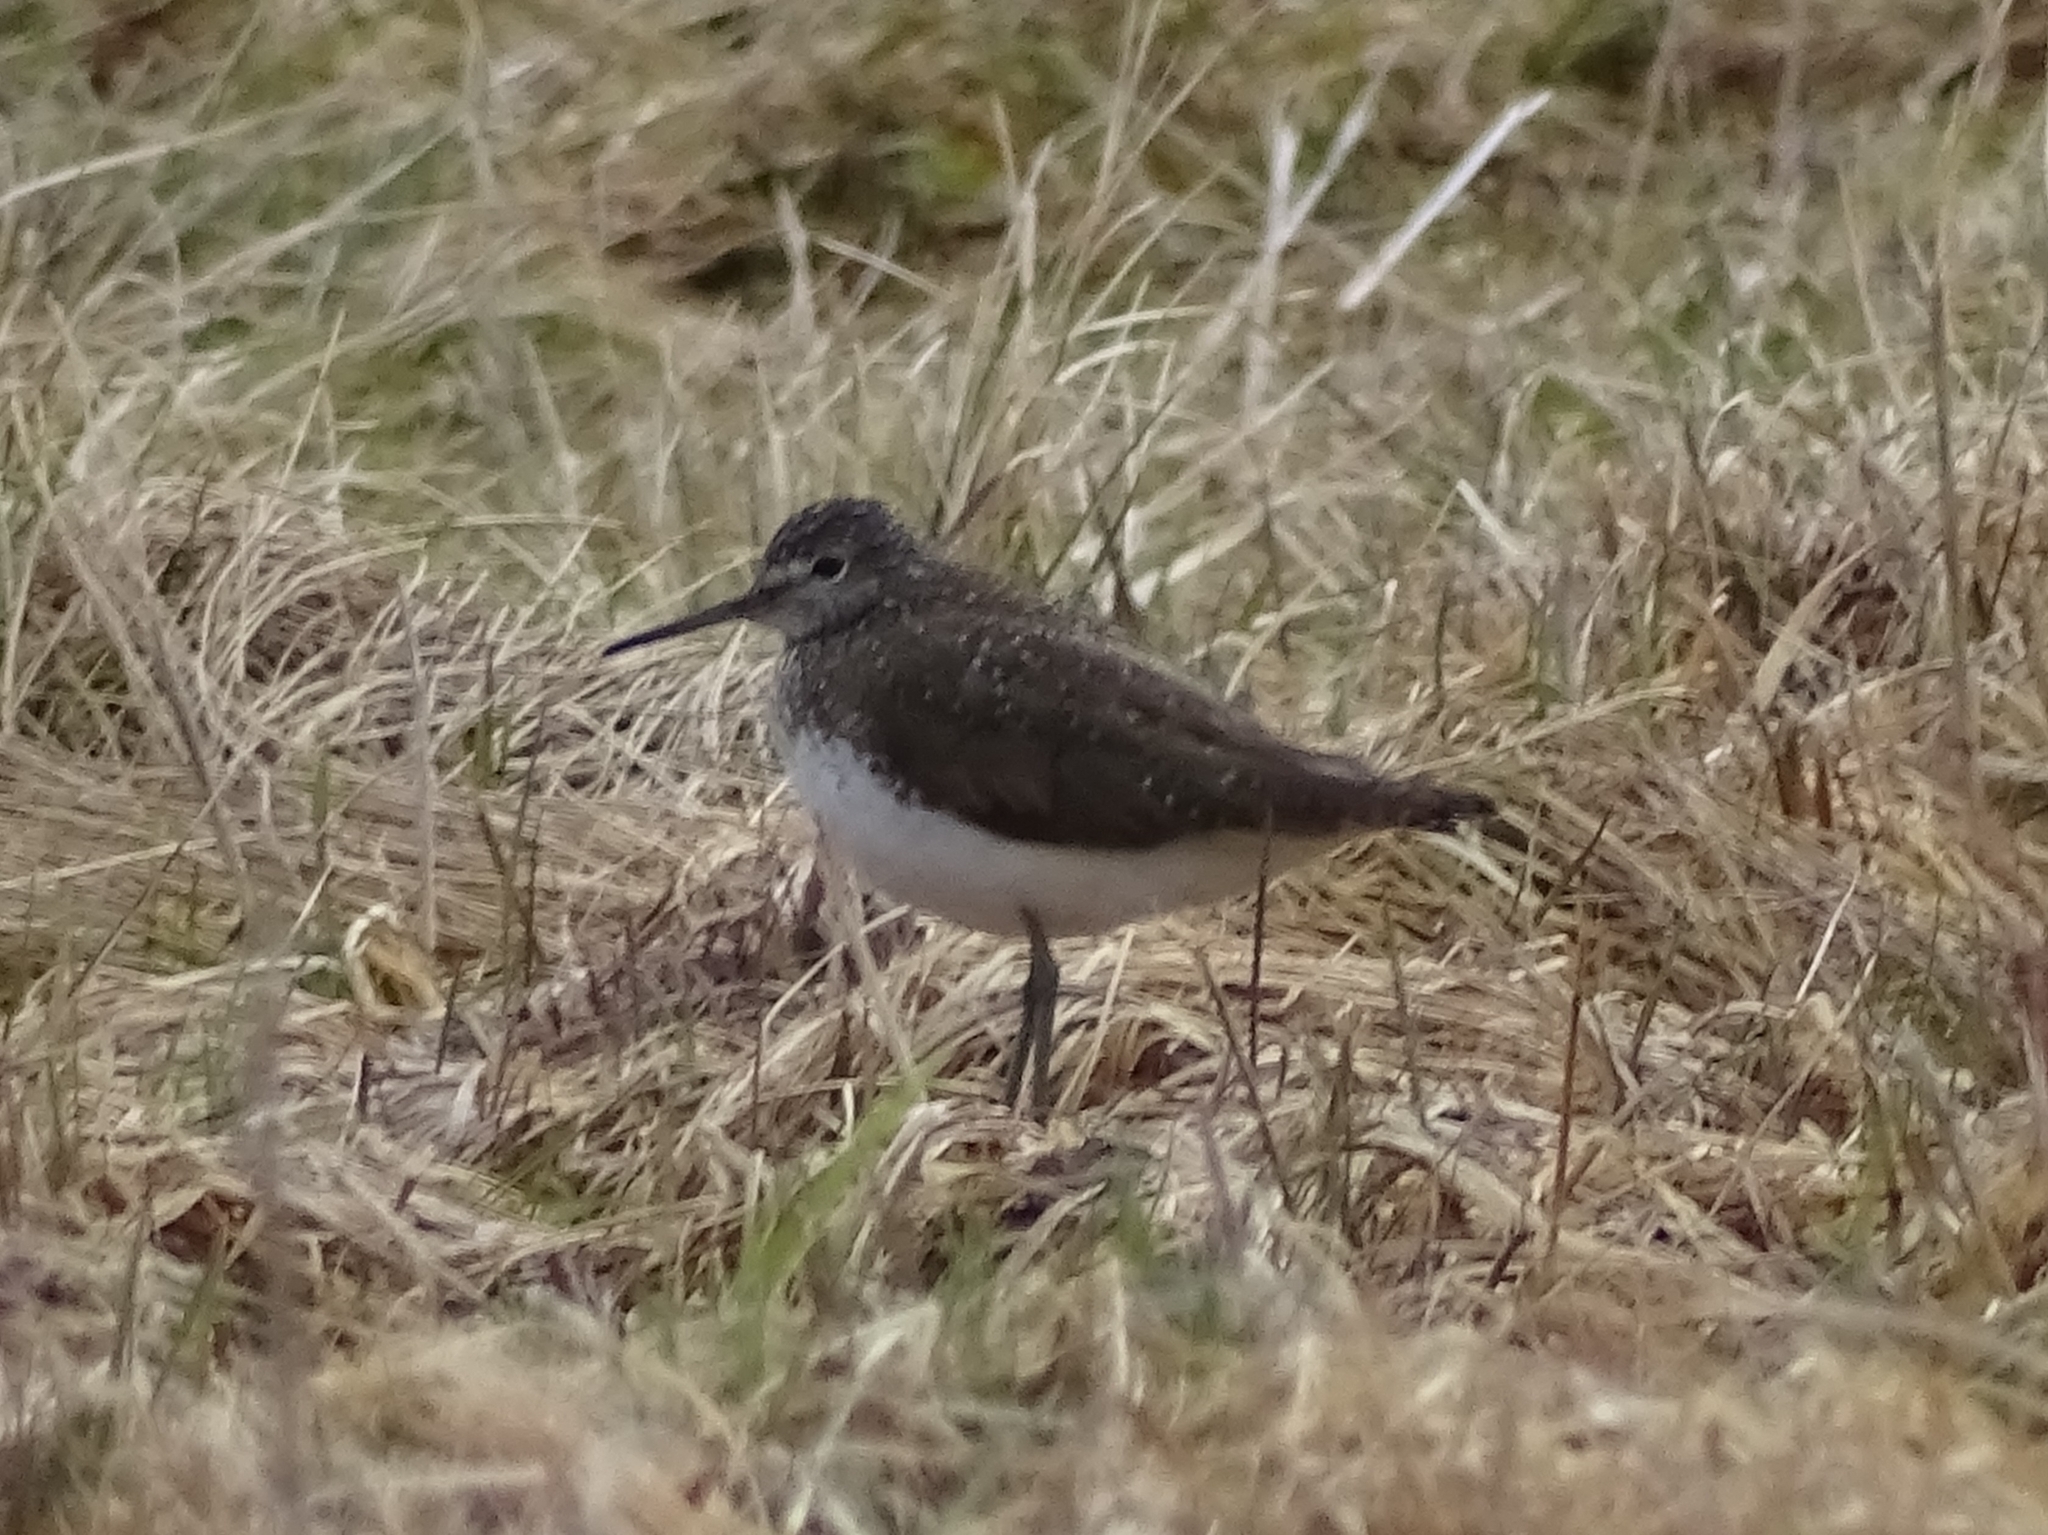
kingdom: Animalia
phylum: Chordata
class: Aves
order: Charadriiformes
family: Scolopacidae
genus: Tringa
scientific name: Tringa ochropus
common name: Green sandpiper
